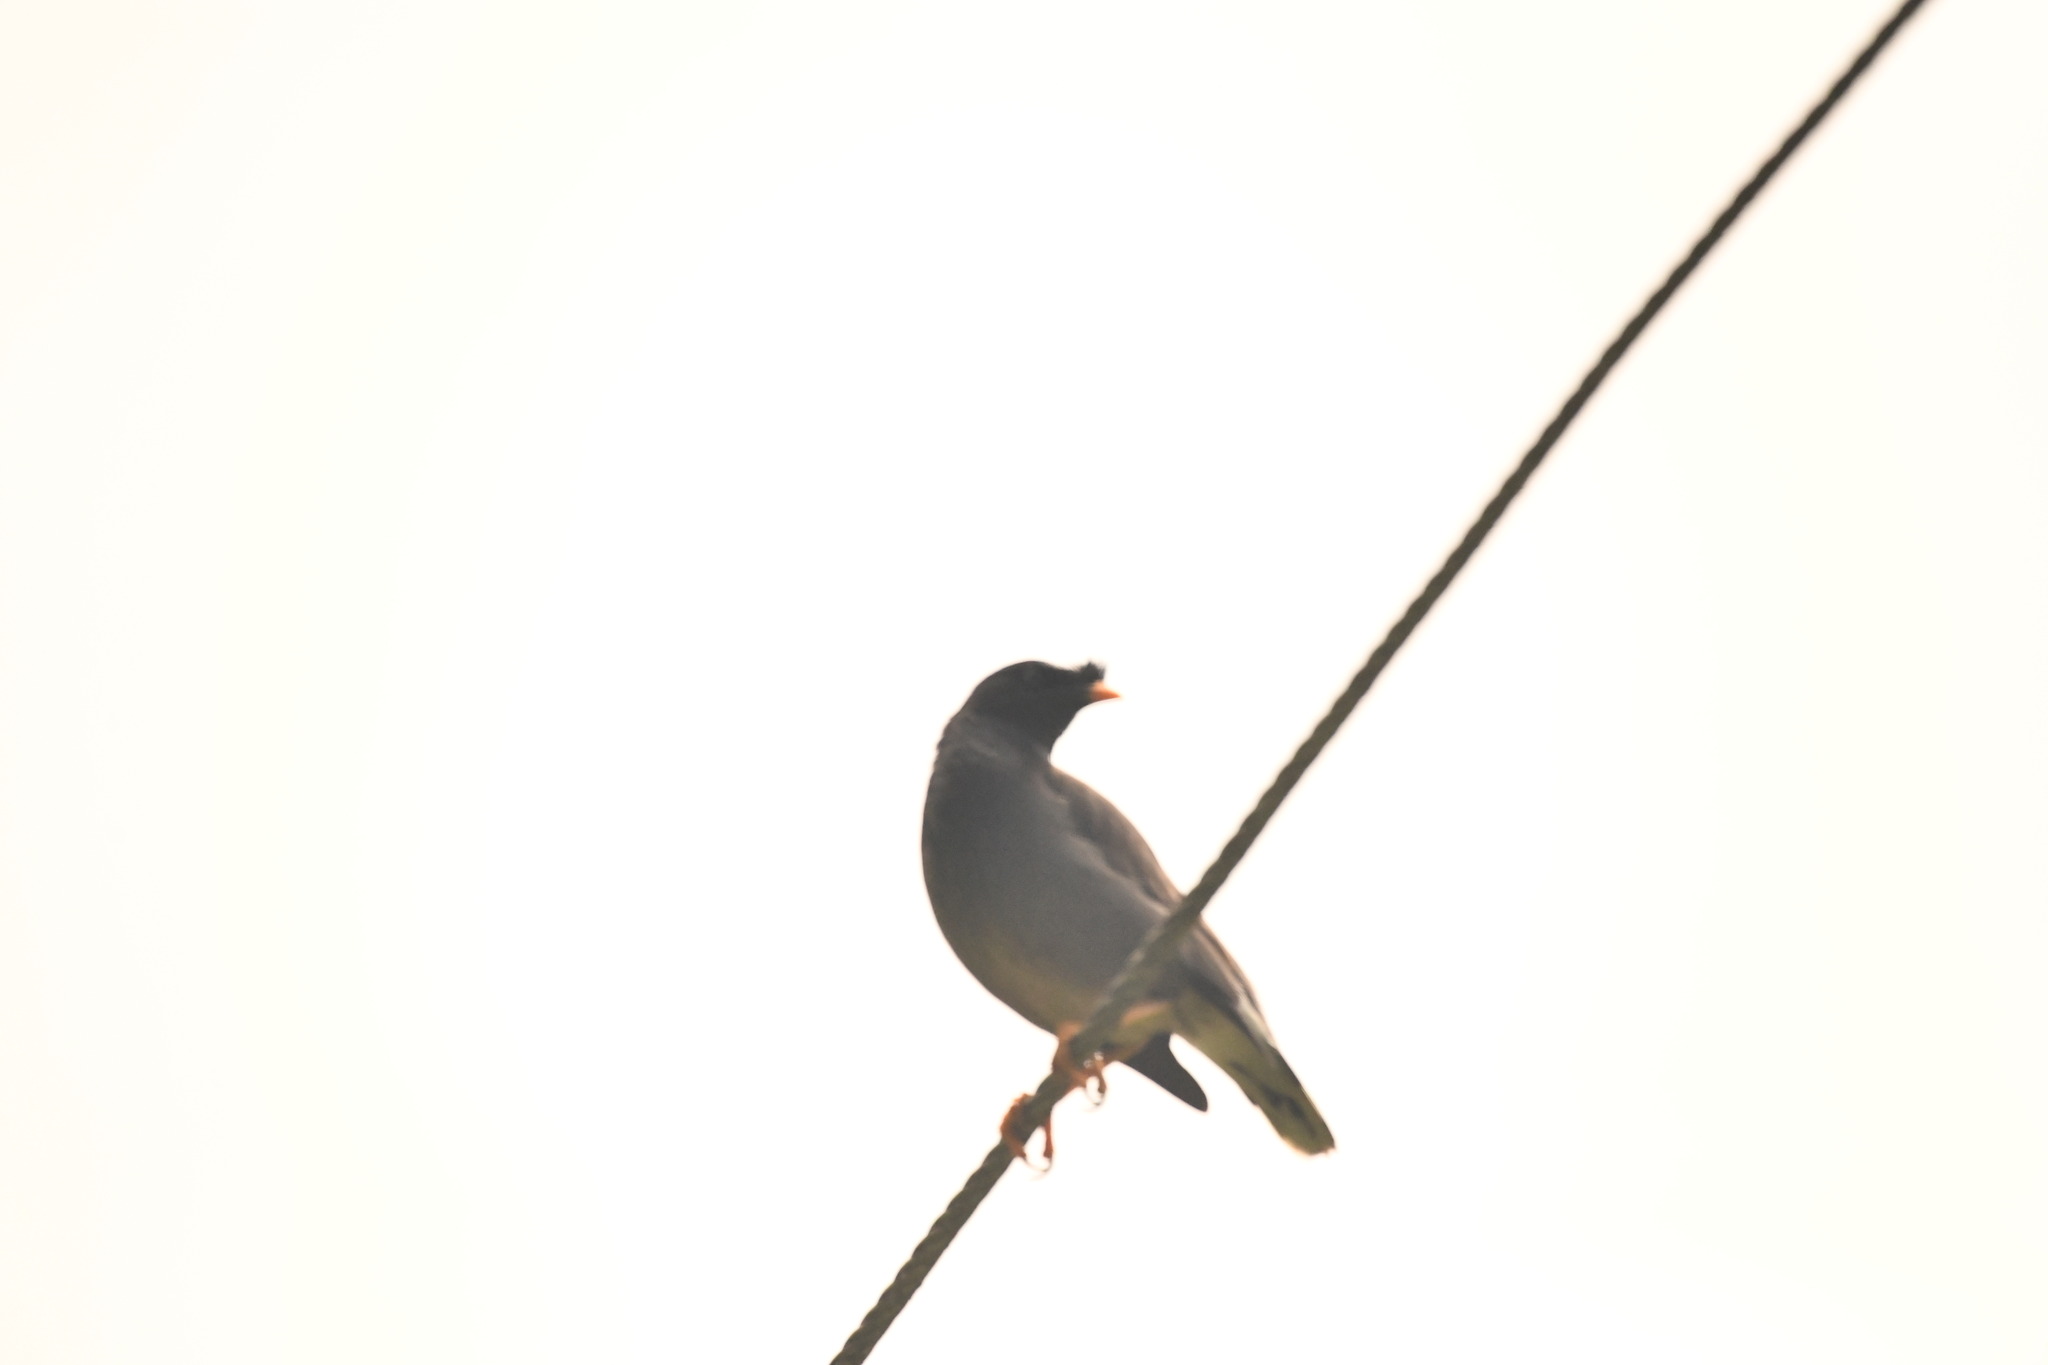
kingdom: Animalia
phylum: Chordata
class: Aves
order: Passeriformes
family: Sturnidae
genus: Acridotheres
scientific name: Acridotheres fuscus
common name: Jungle myna
